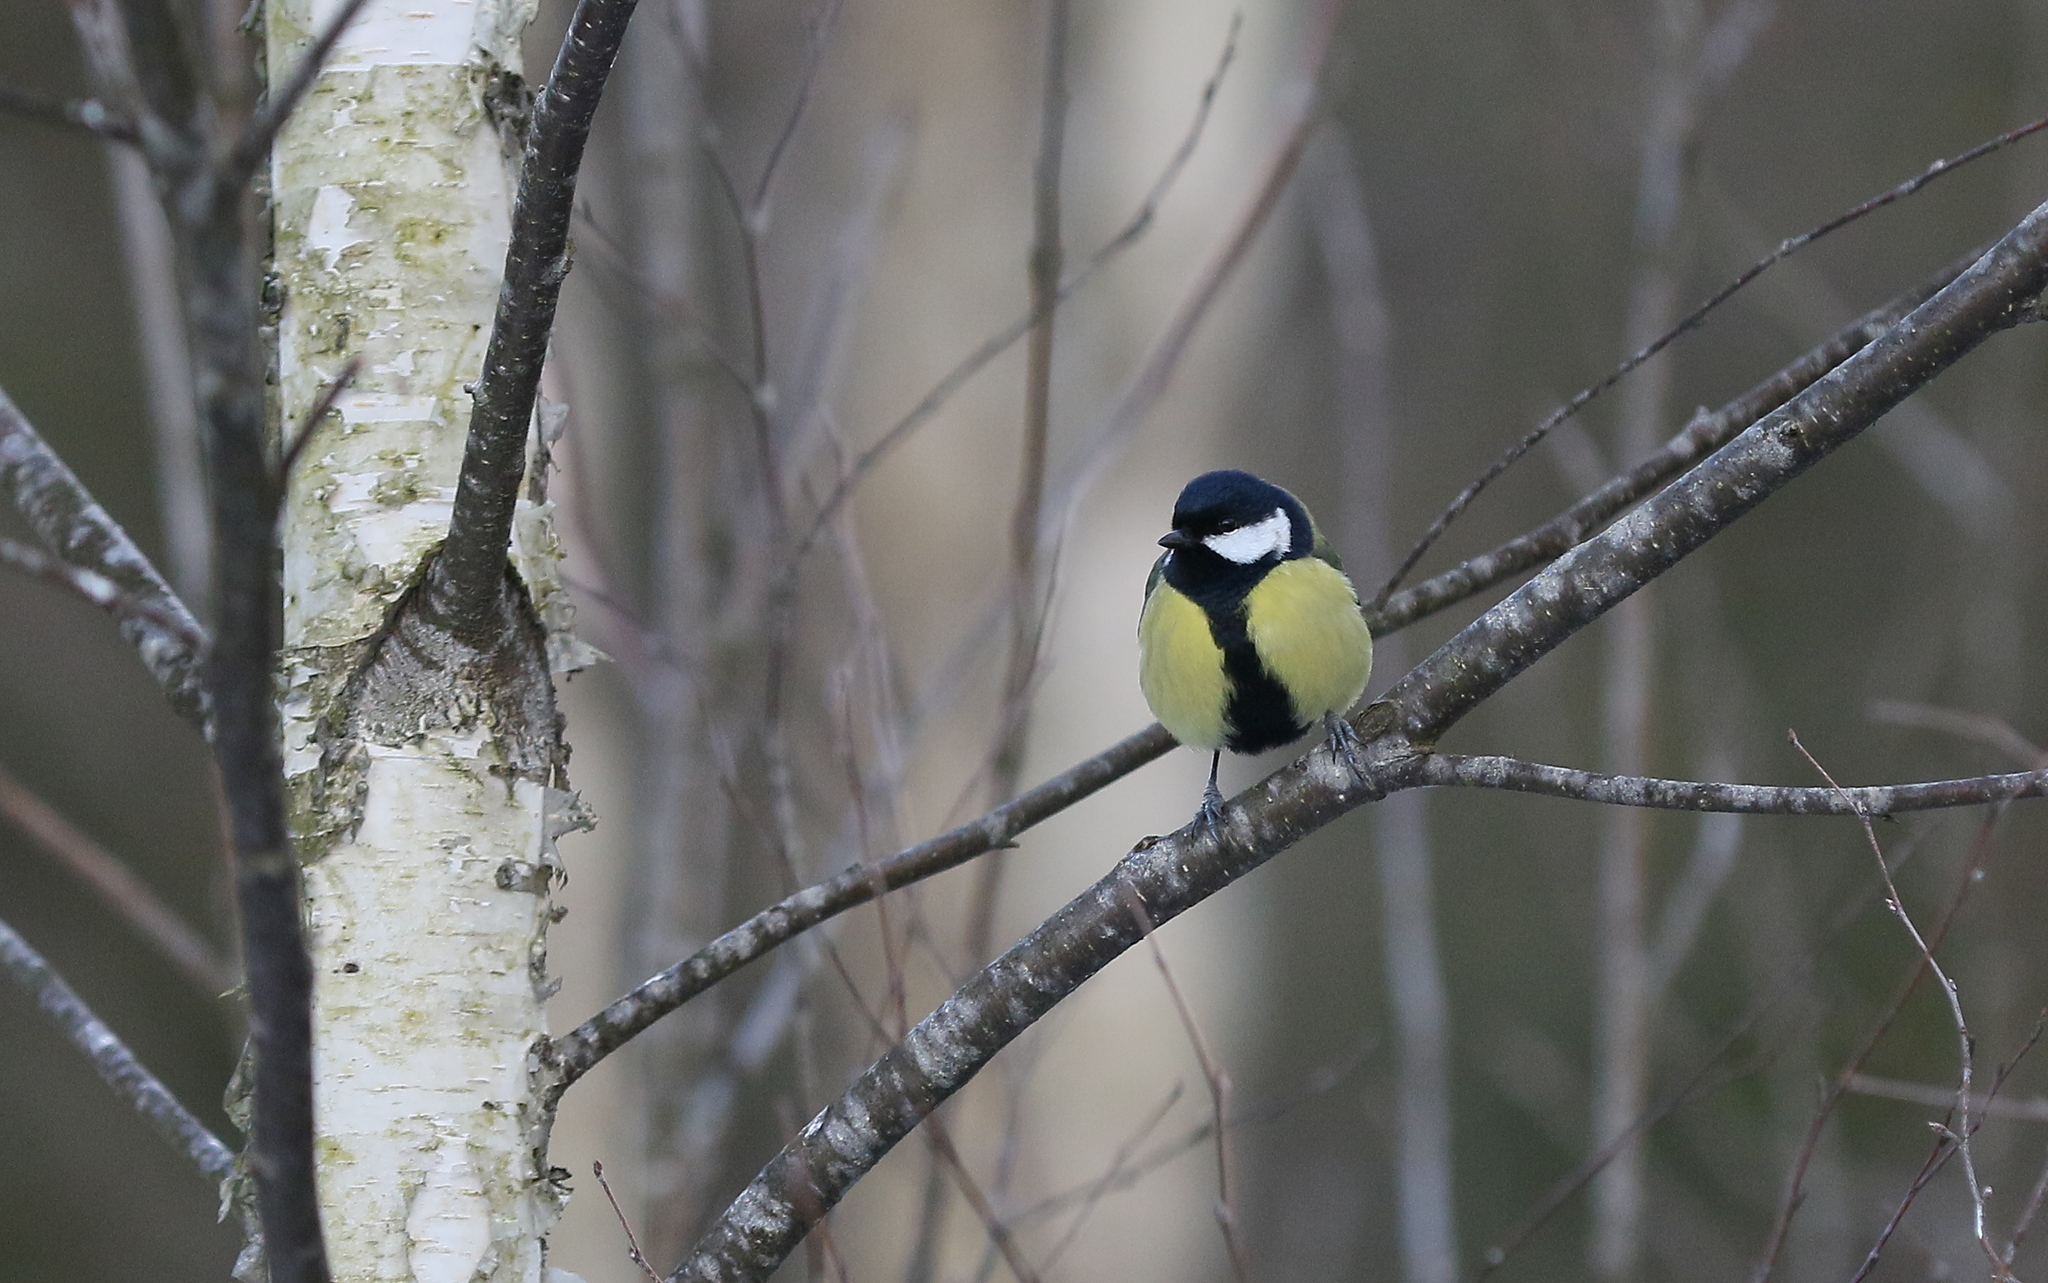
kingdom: Animalia
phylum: Chordata
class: Aves
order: Passeriformes
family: Paridae
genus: Parus
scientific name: Parus major
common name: Great tit
